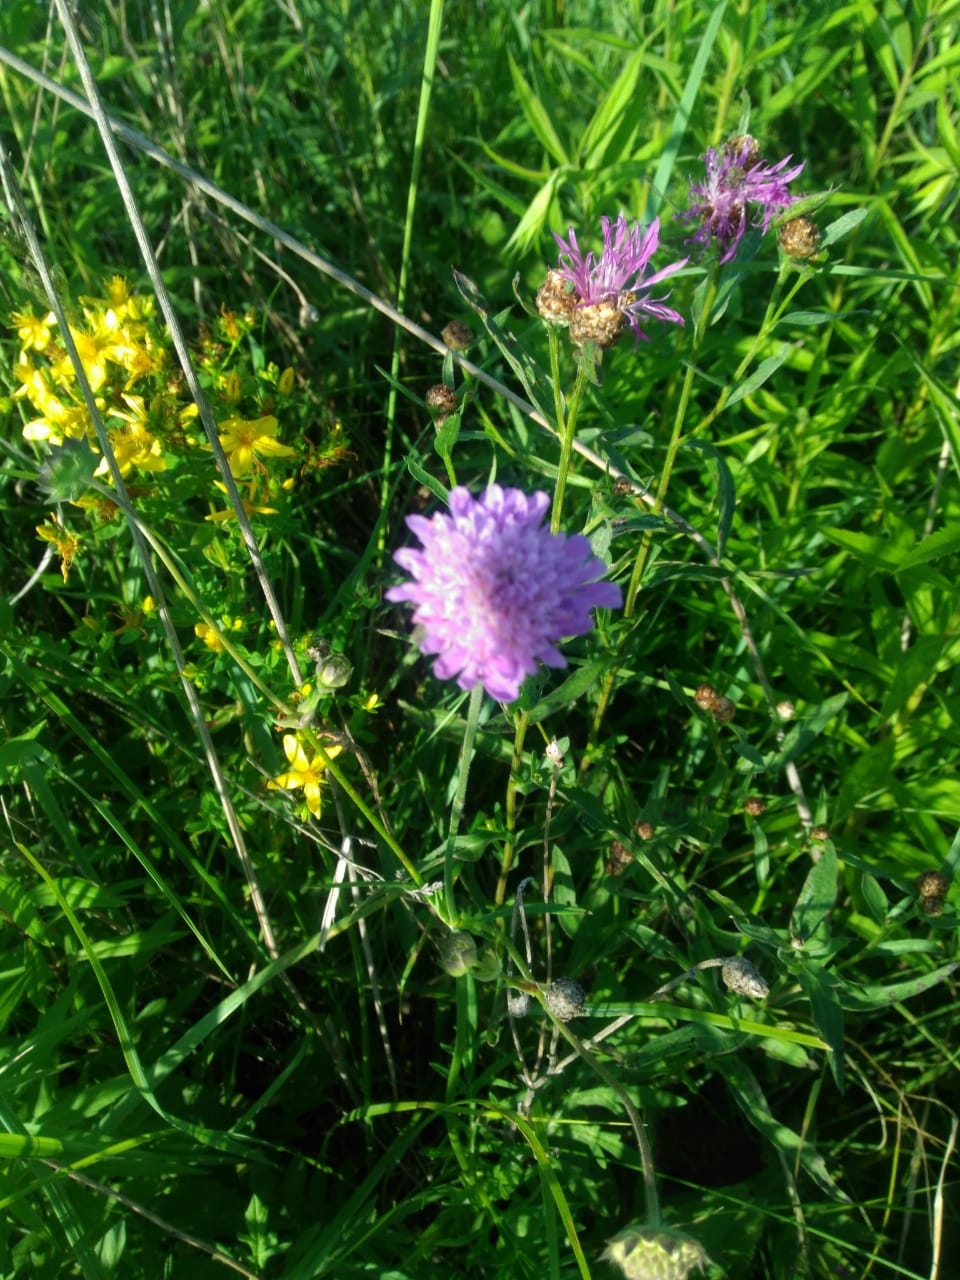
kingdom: Plantae
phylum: Tracheophyta
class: Magnoliopsida
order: Dipsacales
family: Caprifoliaceae
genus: Knautia
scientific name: Knautia arvensis
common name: Field scabiosa
